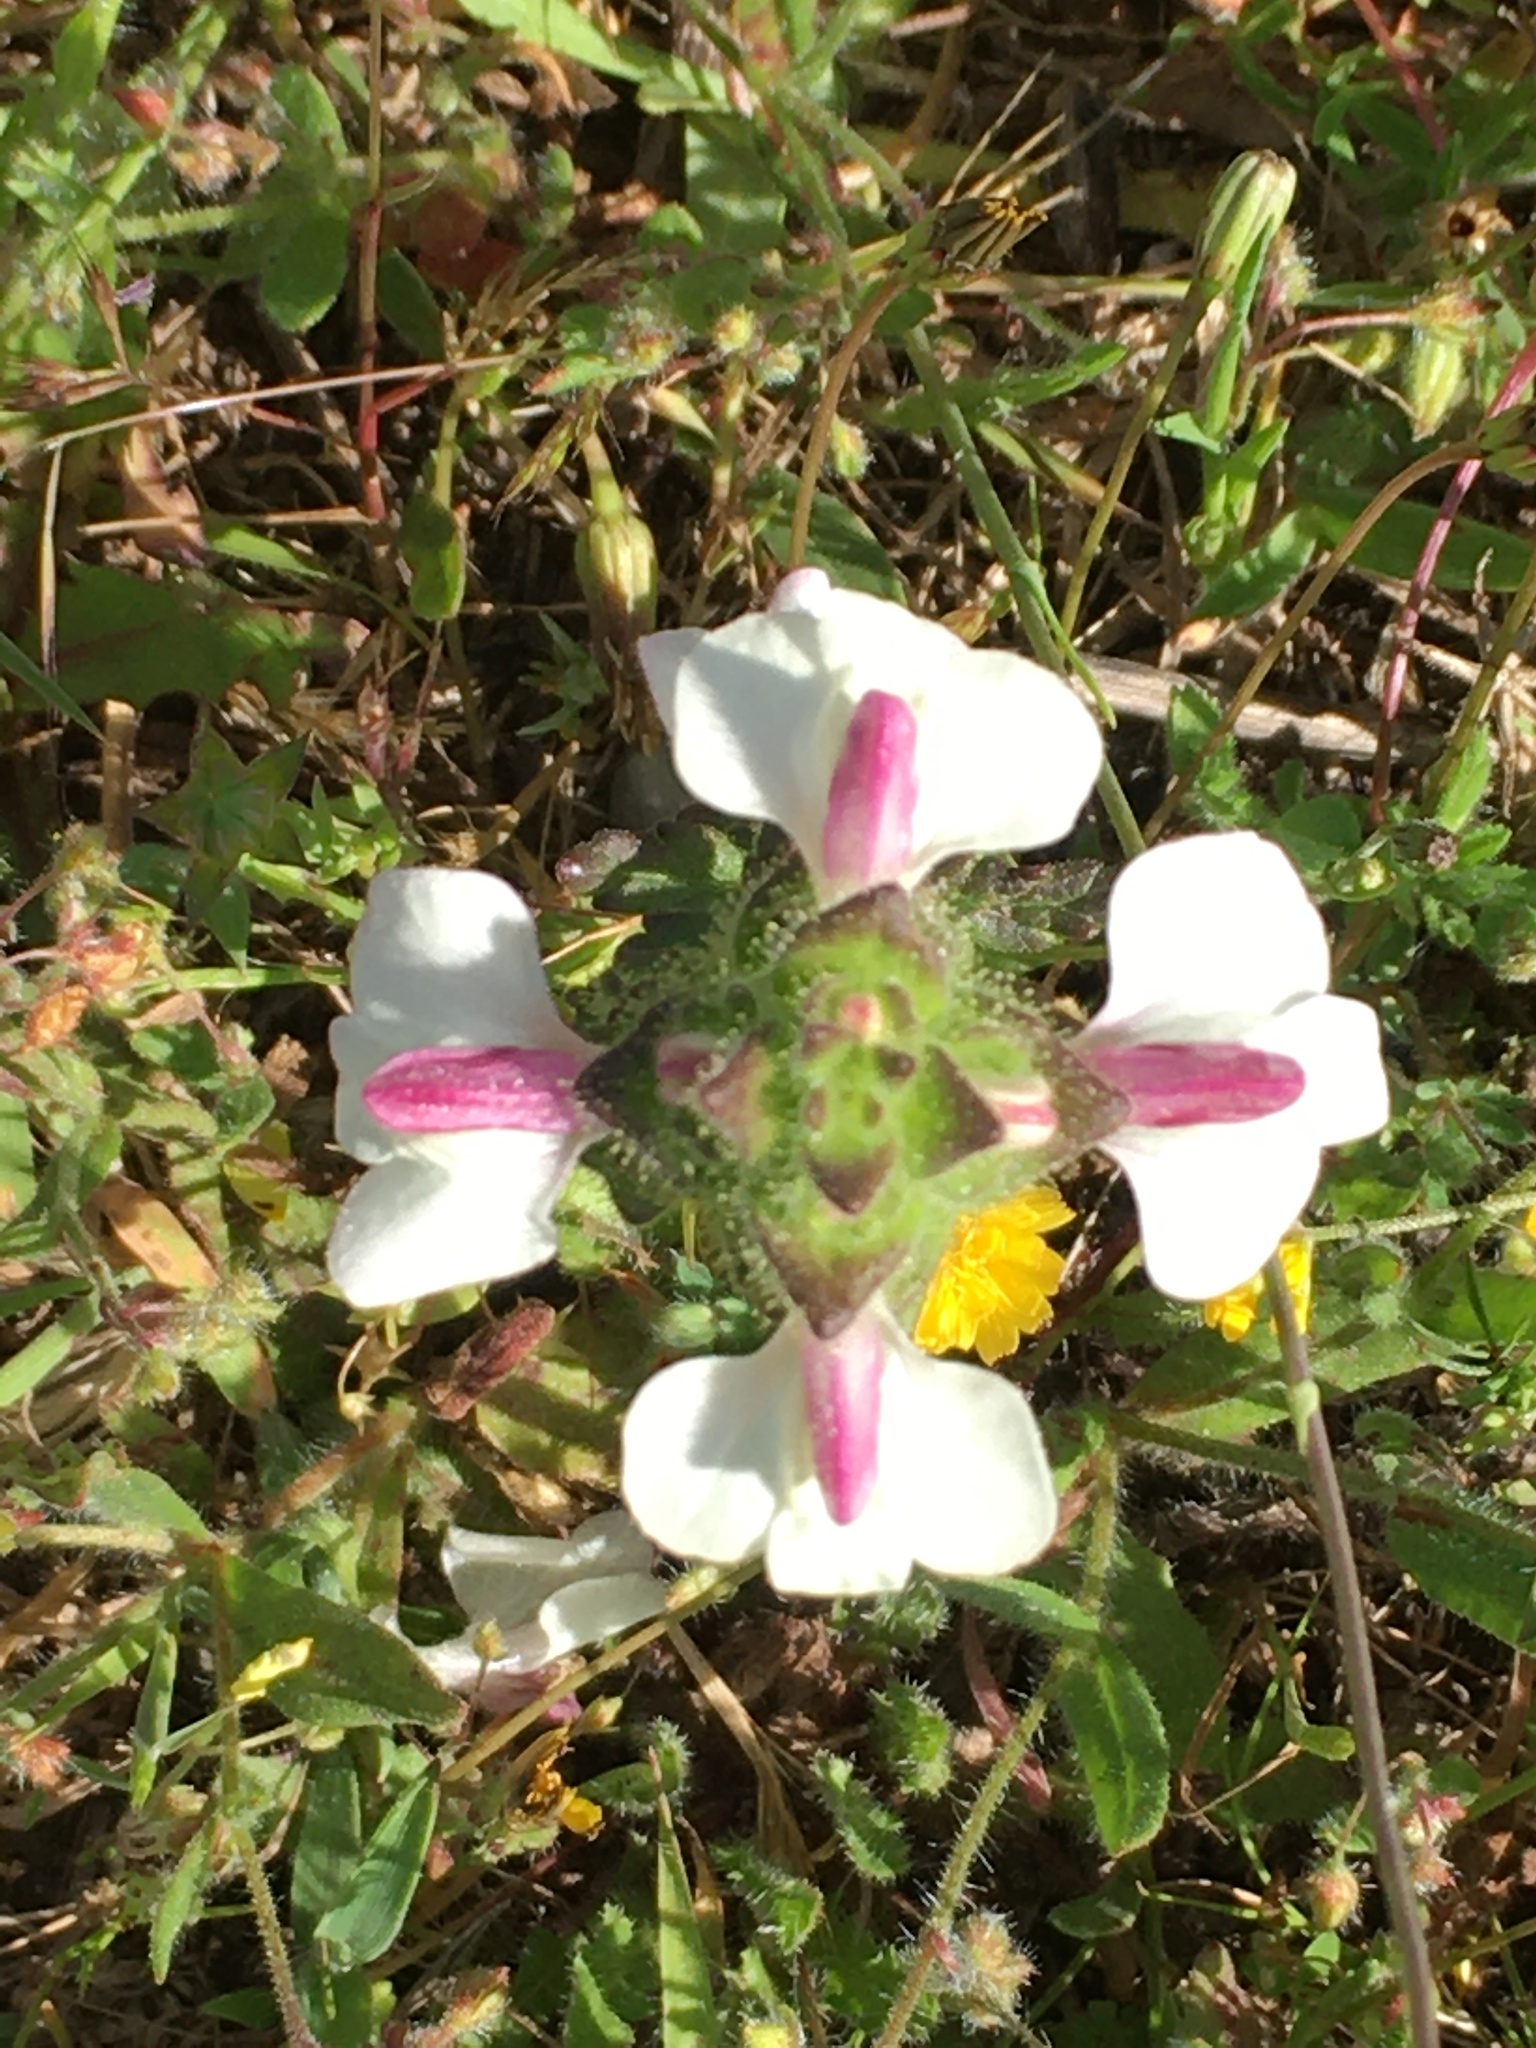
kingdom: Plantae
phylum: Tracheophyta
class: Magnoliopsida
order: Lamiales
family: Orobanchaceae
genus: Bellardia
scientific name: Bellardia trixago
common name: Mediterranean lineseed
